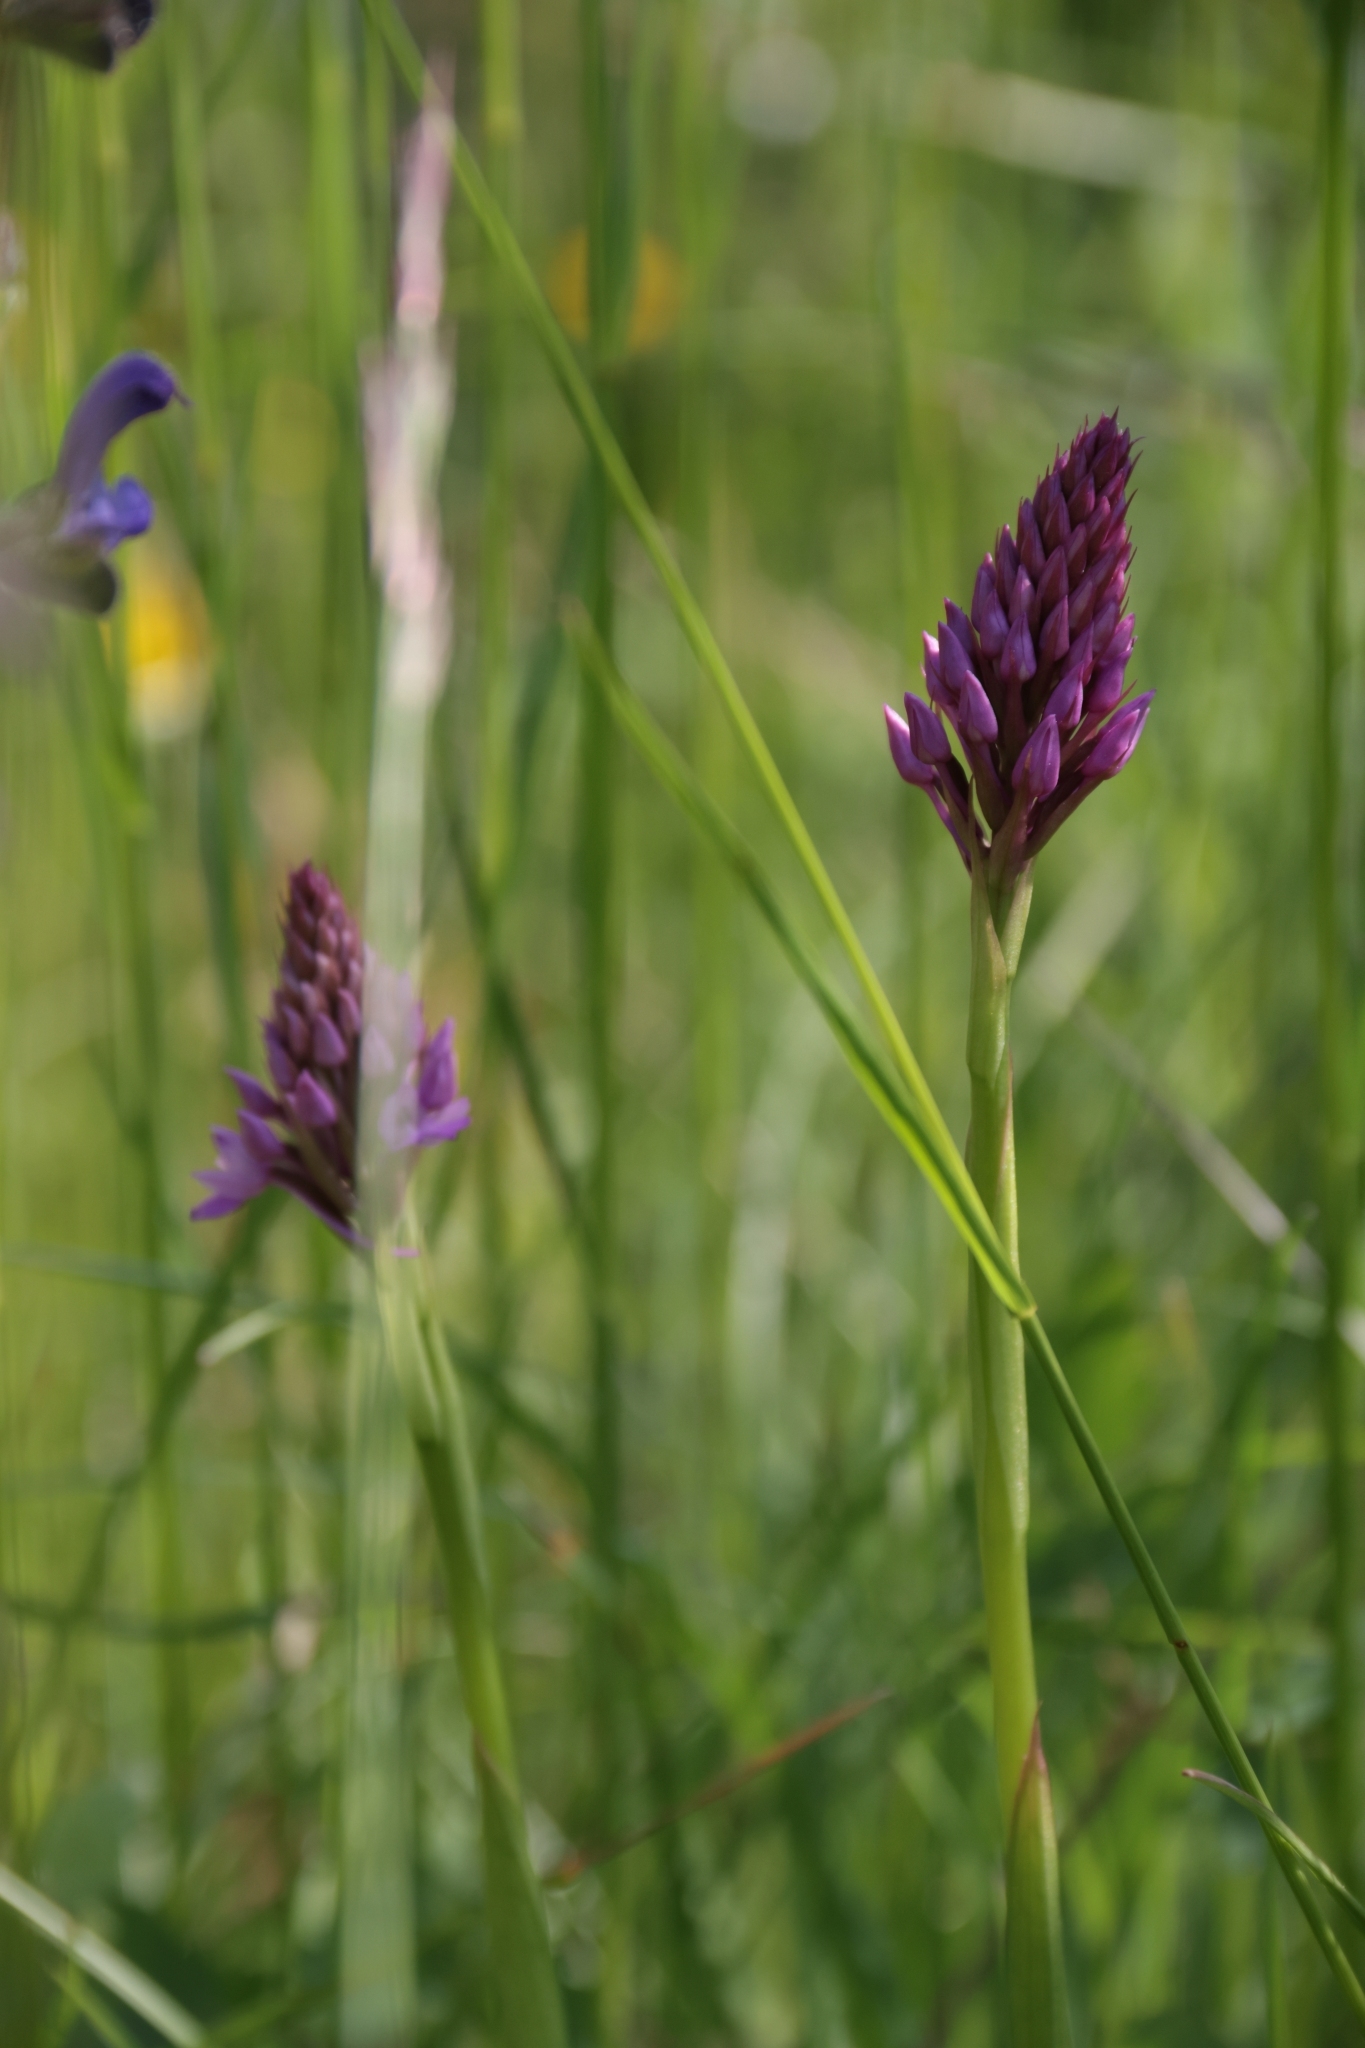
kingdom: Plantae
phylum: Tracheophyta
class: Liliopsida
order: Asparagales
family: Orchidaceae
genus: Anacamptis
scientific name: Anacamptis pyramidalis
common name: Pyramidal orchid
